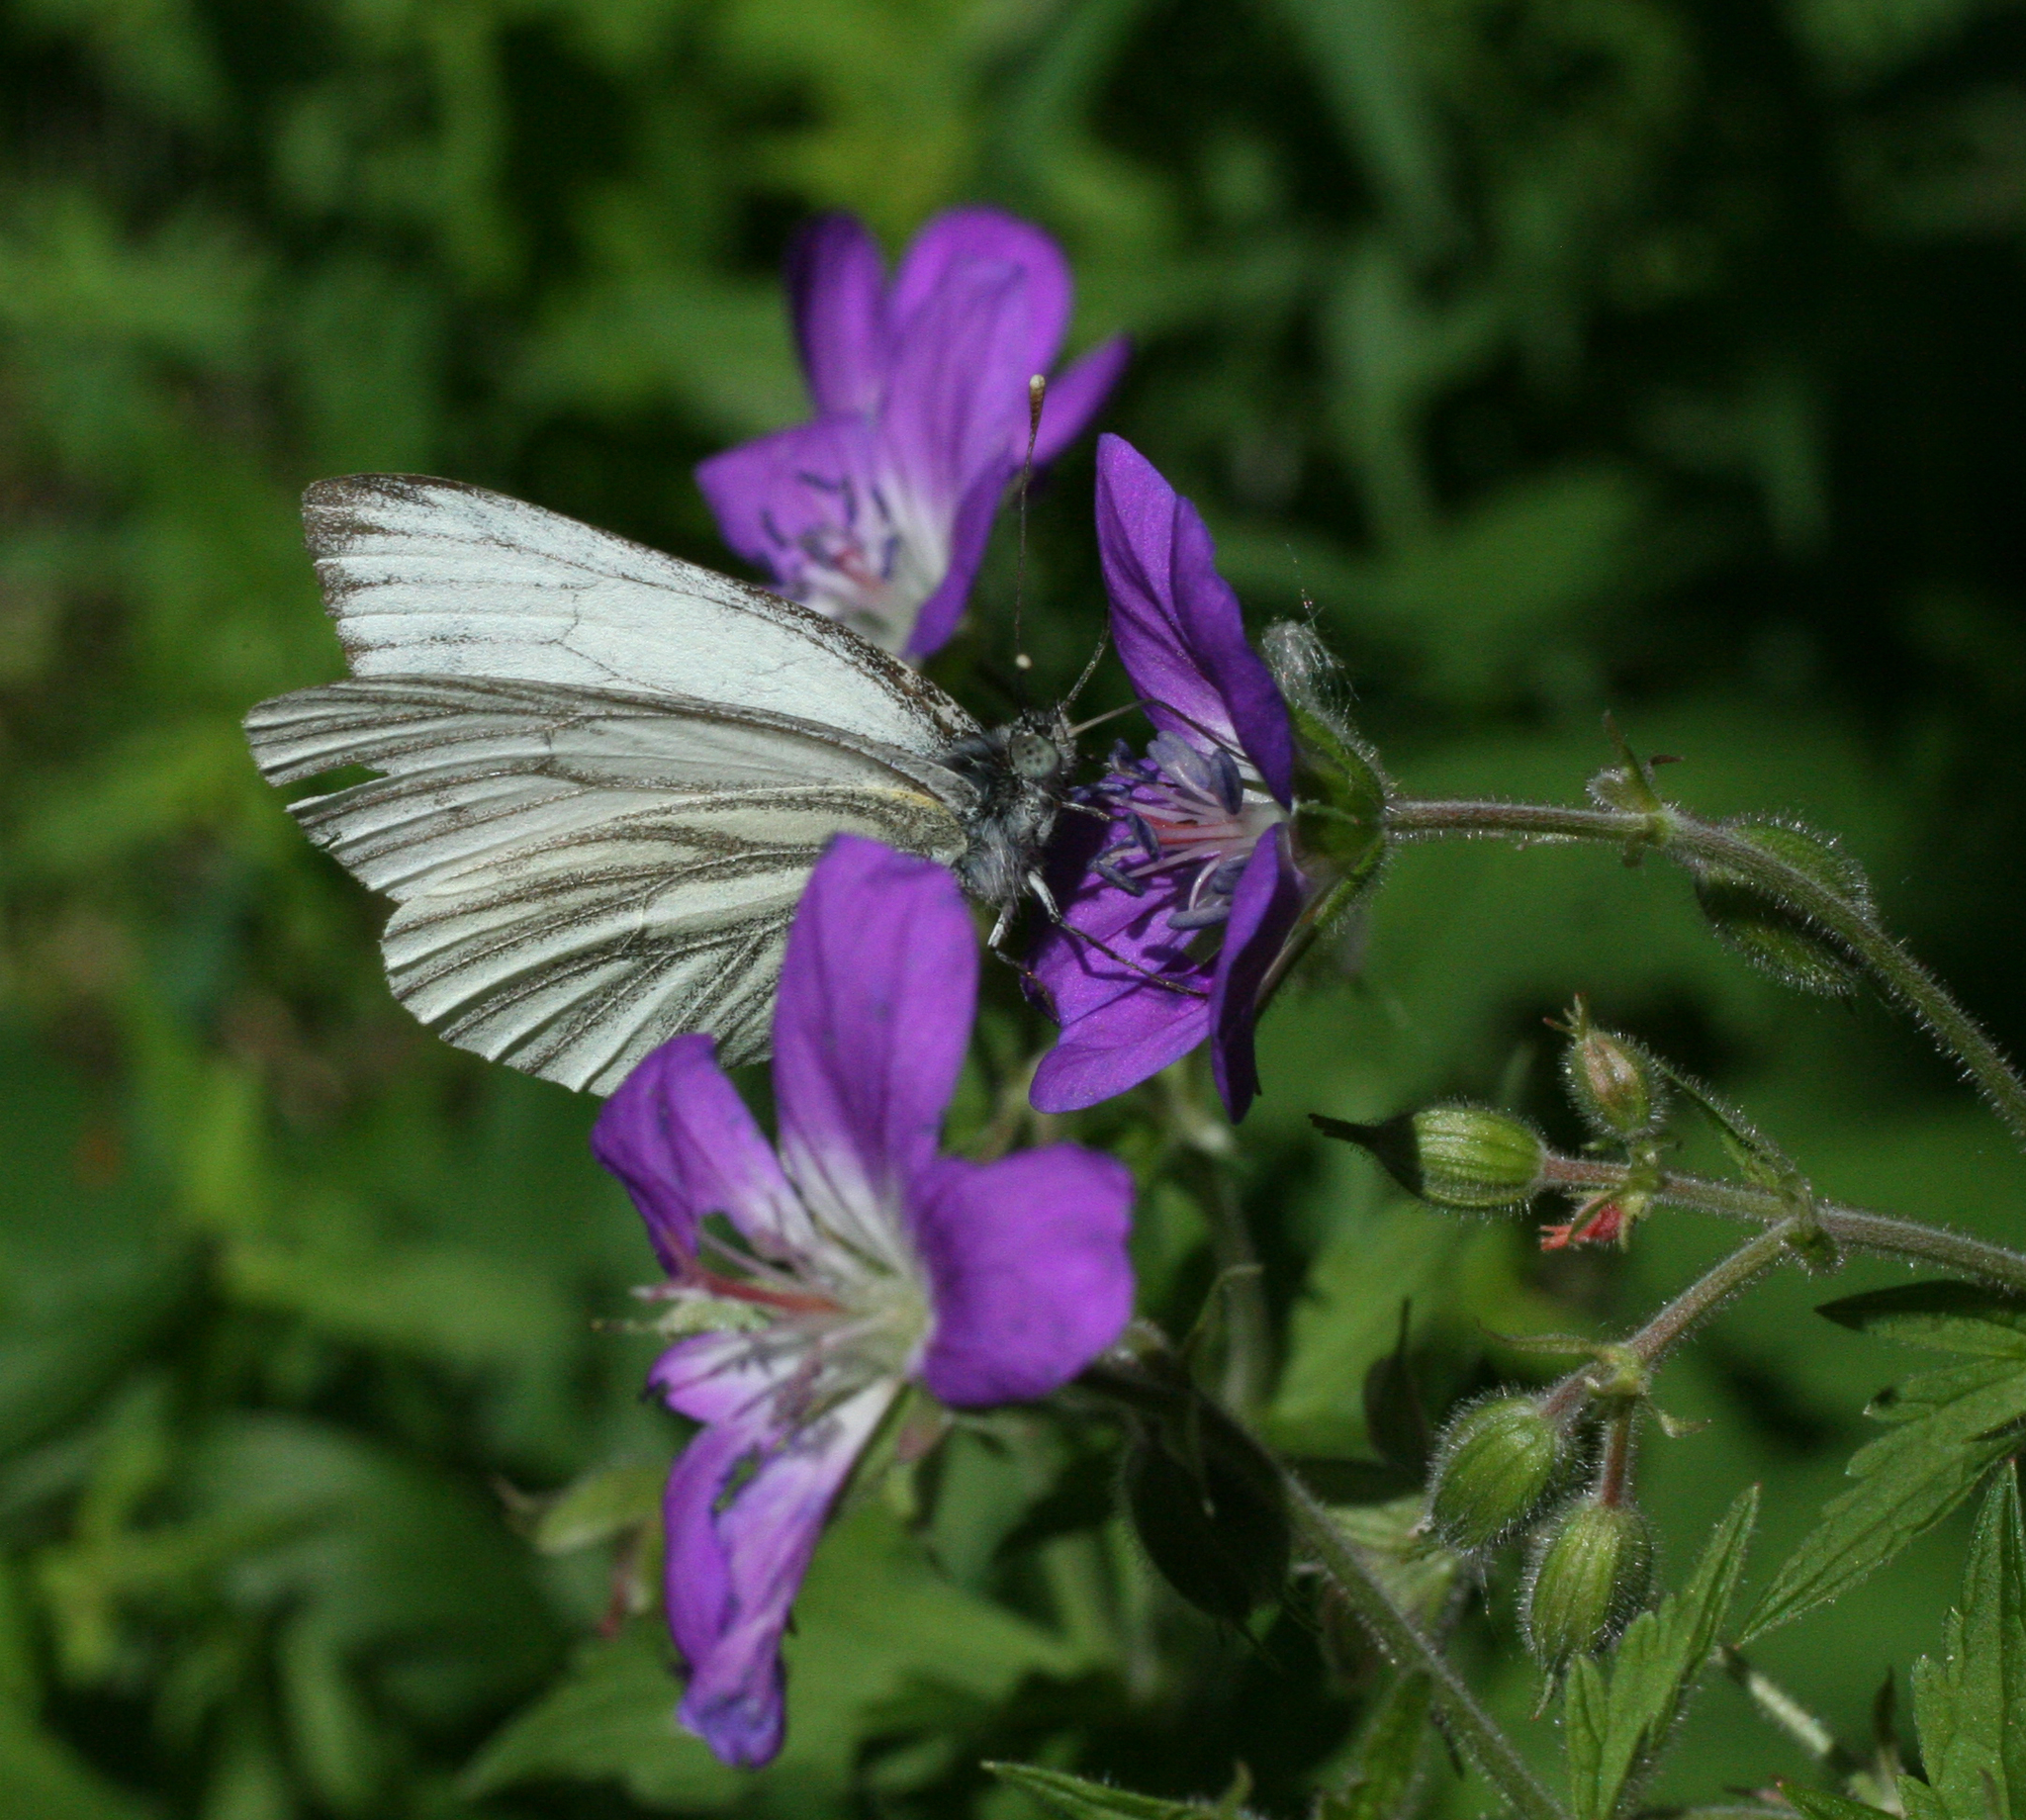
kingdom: Animalia
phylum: Arthropoda
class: Insecta
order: Lepidoptera
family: Pieridae
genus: Pieris
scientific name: Pieris napi
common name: Green-veined white
